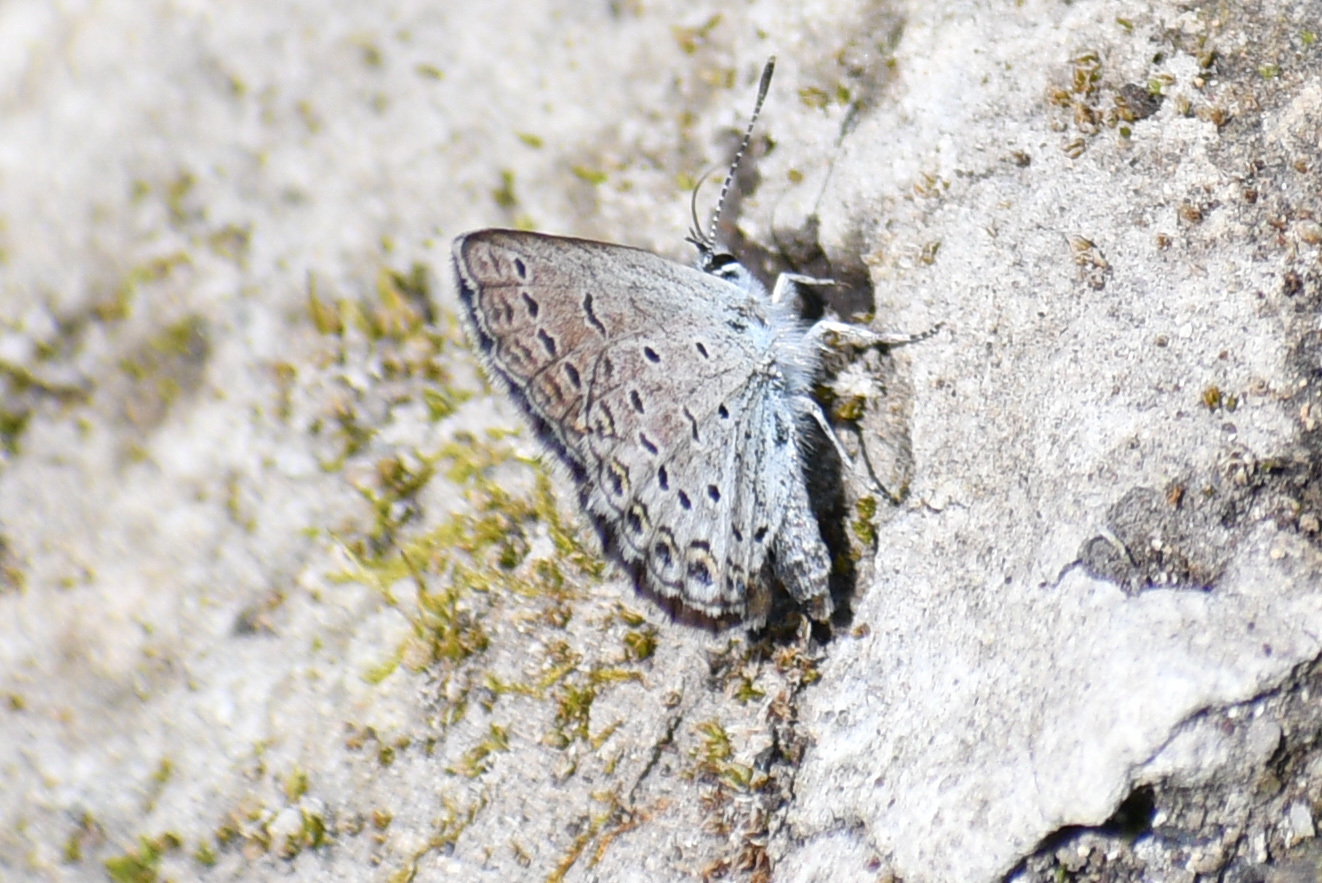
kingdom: Animalia
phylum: Arthropoda
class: Insecta
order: Lepidoptera
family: Lycaenidae
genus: Lycaeides
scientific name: Lycaeides idas
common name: Northern blue
